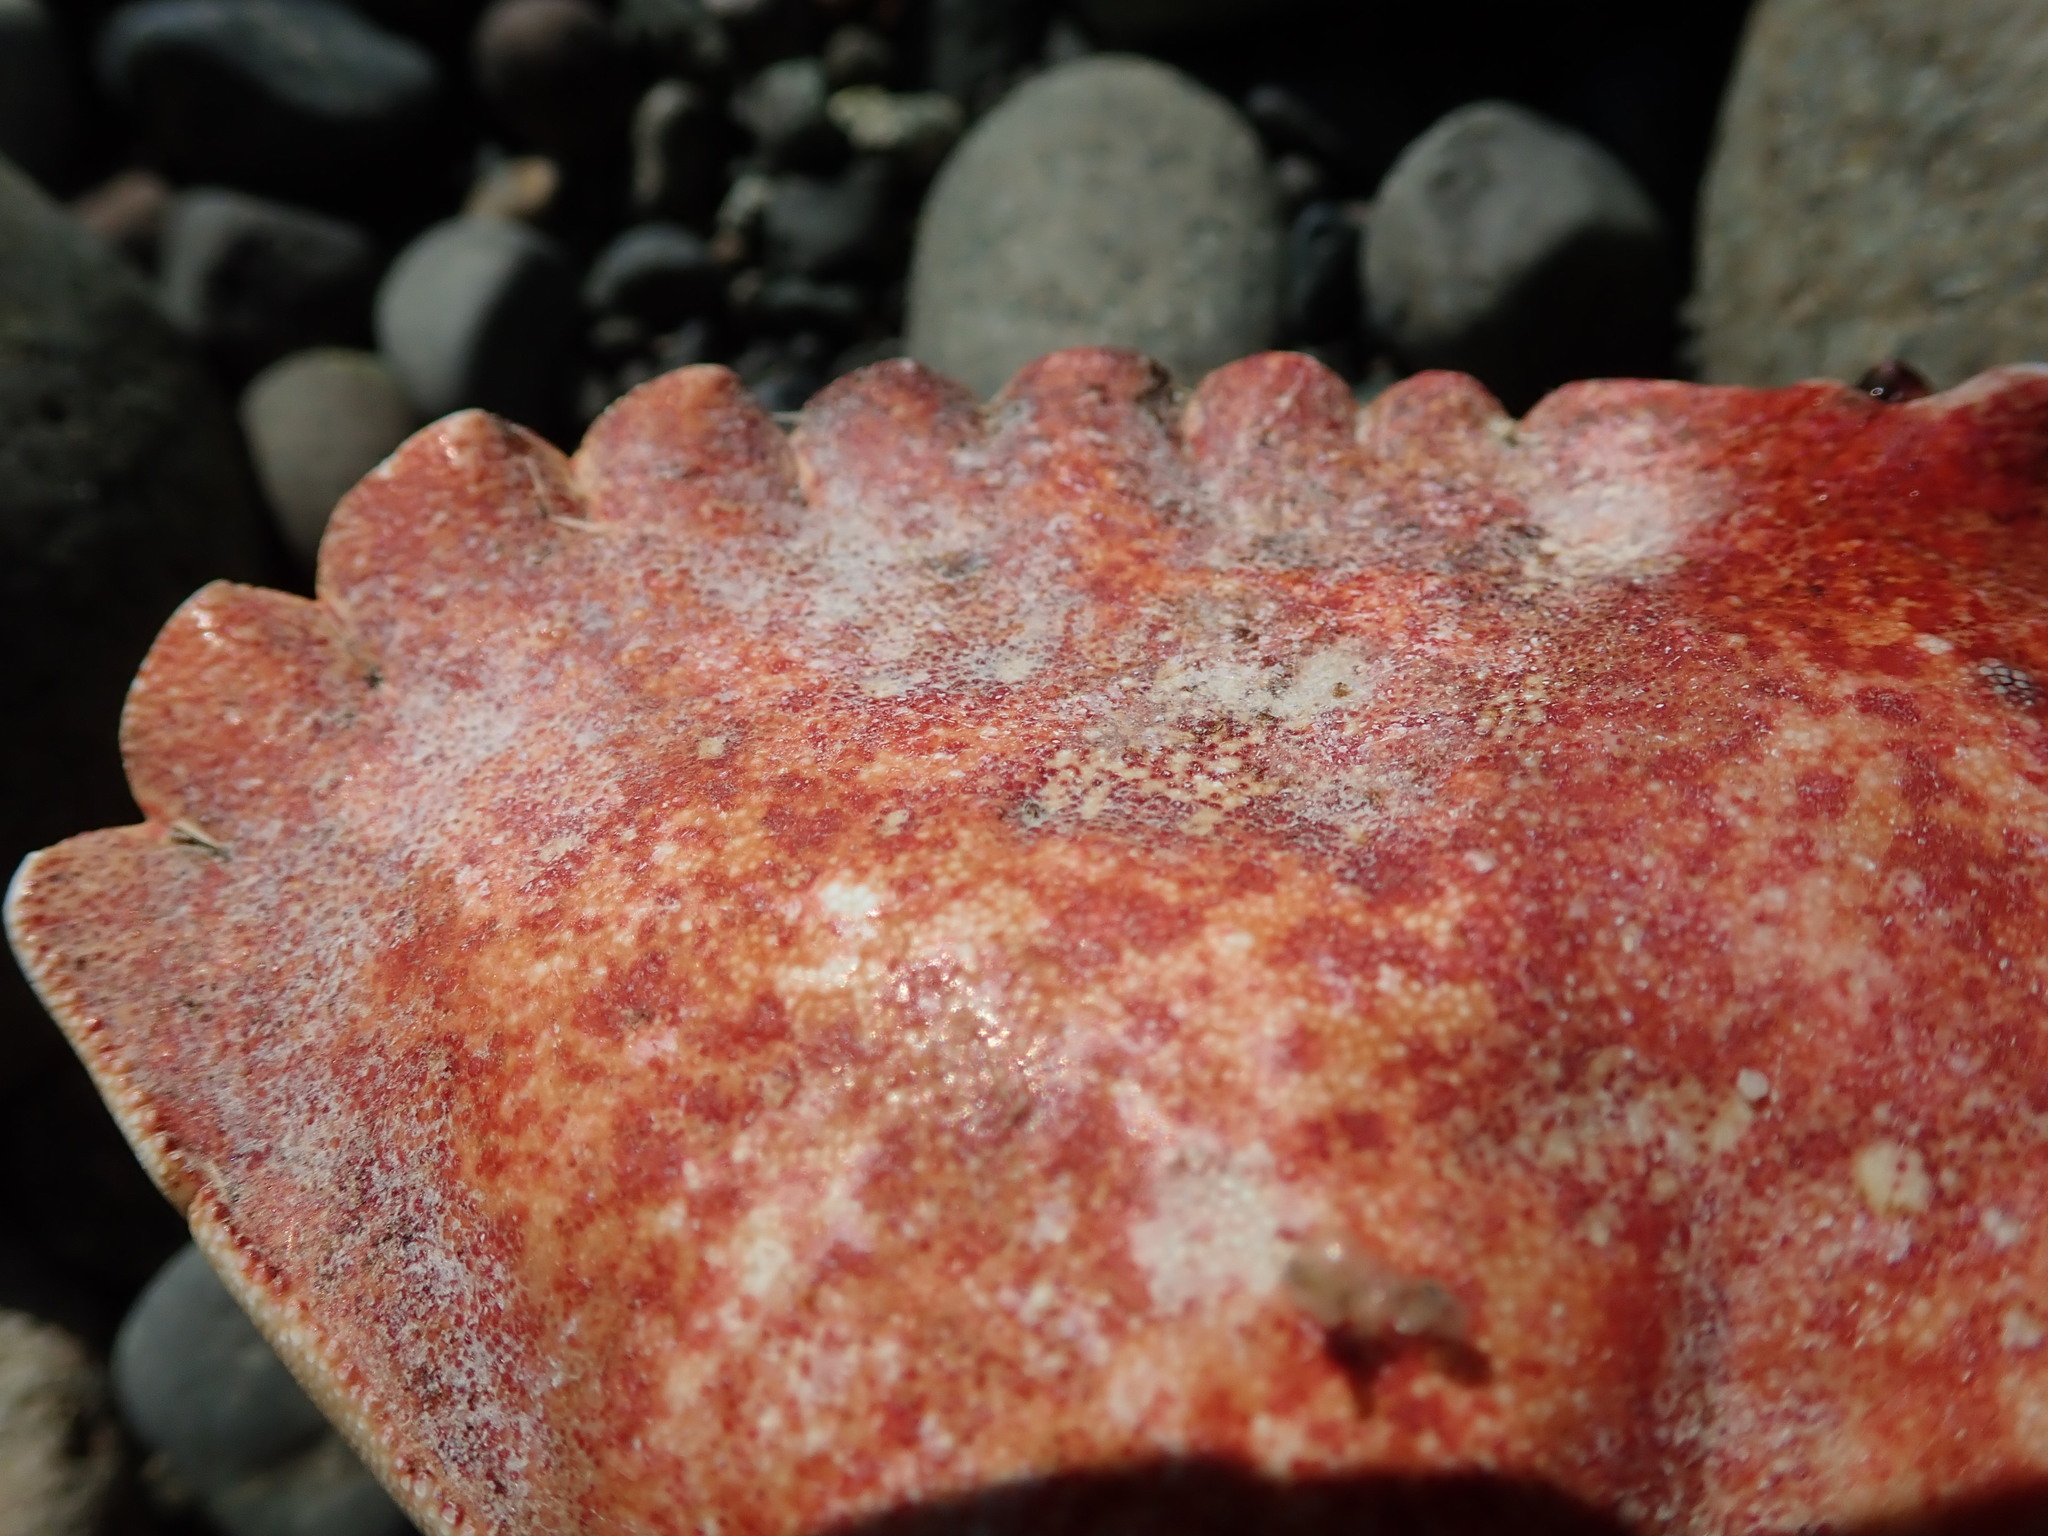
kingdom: Animalia
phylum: Arthropoda
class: Malacostraca
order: Decapoda
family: Cancridae
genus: Cancer
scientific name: Cancer productus
